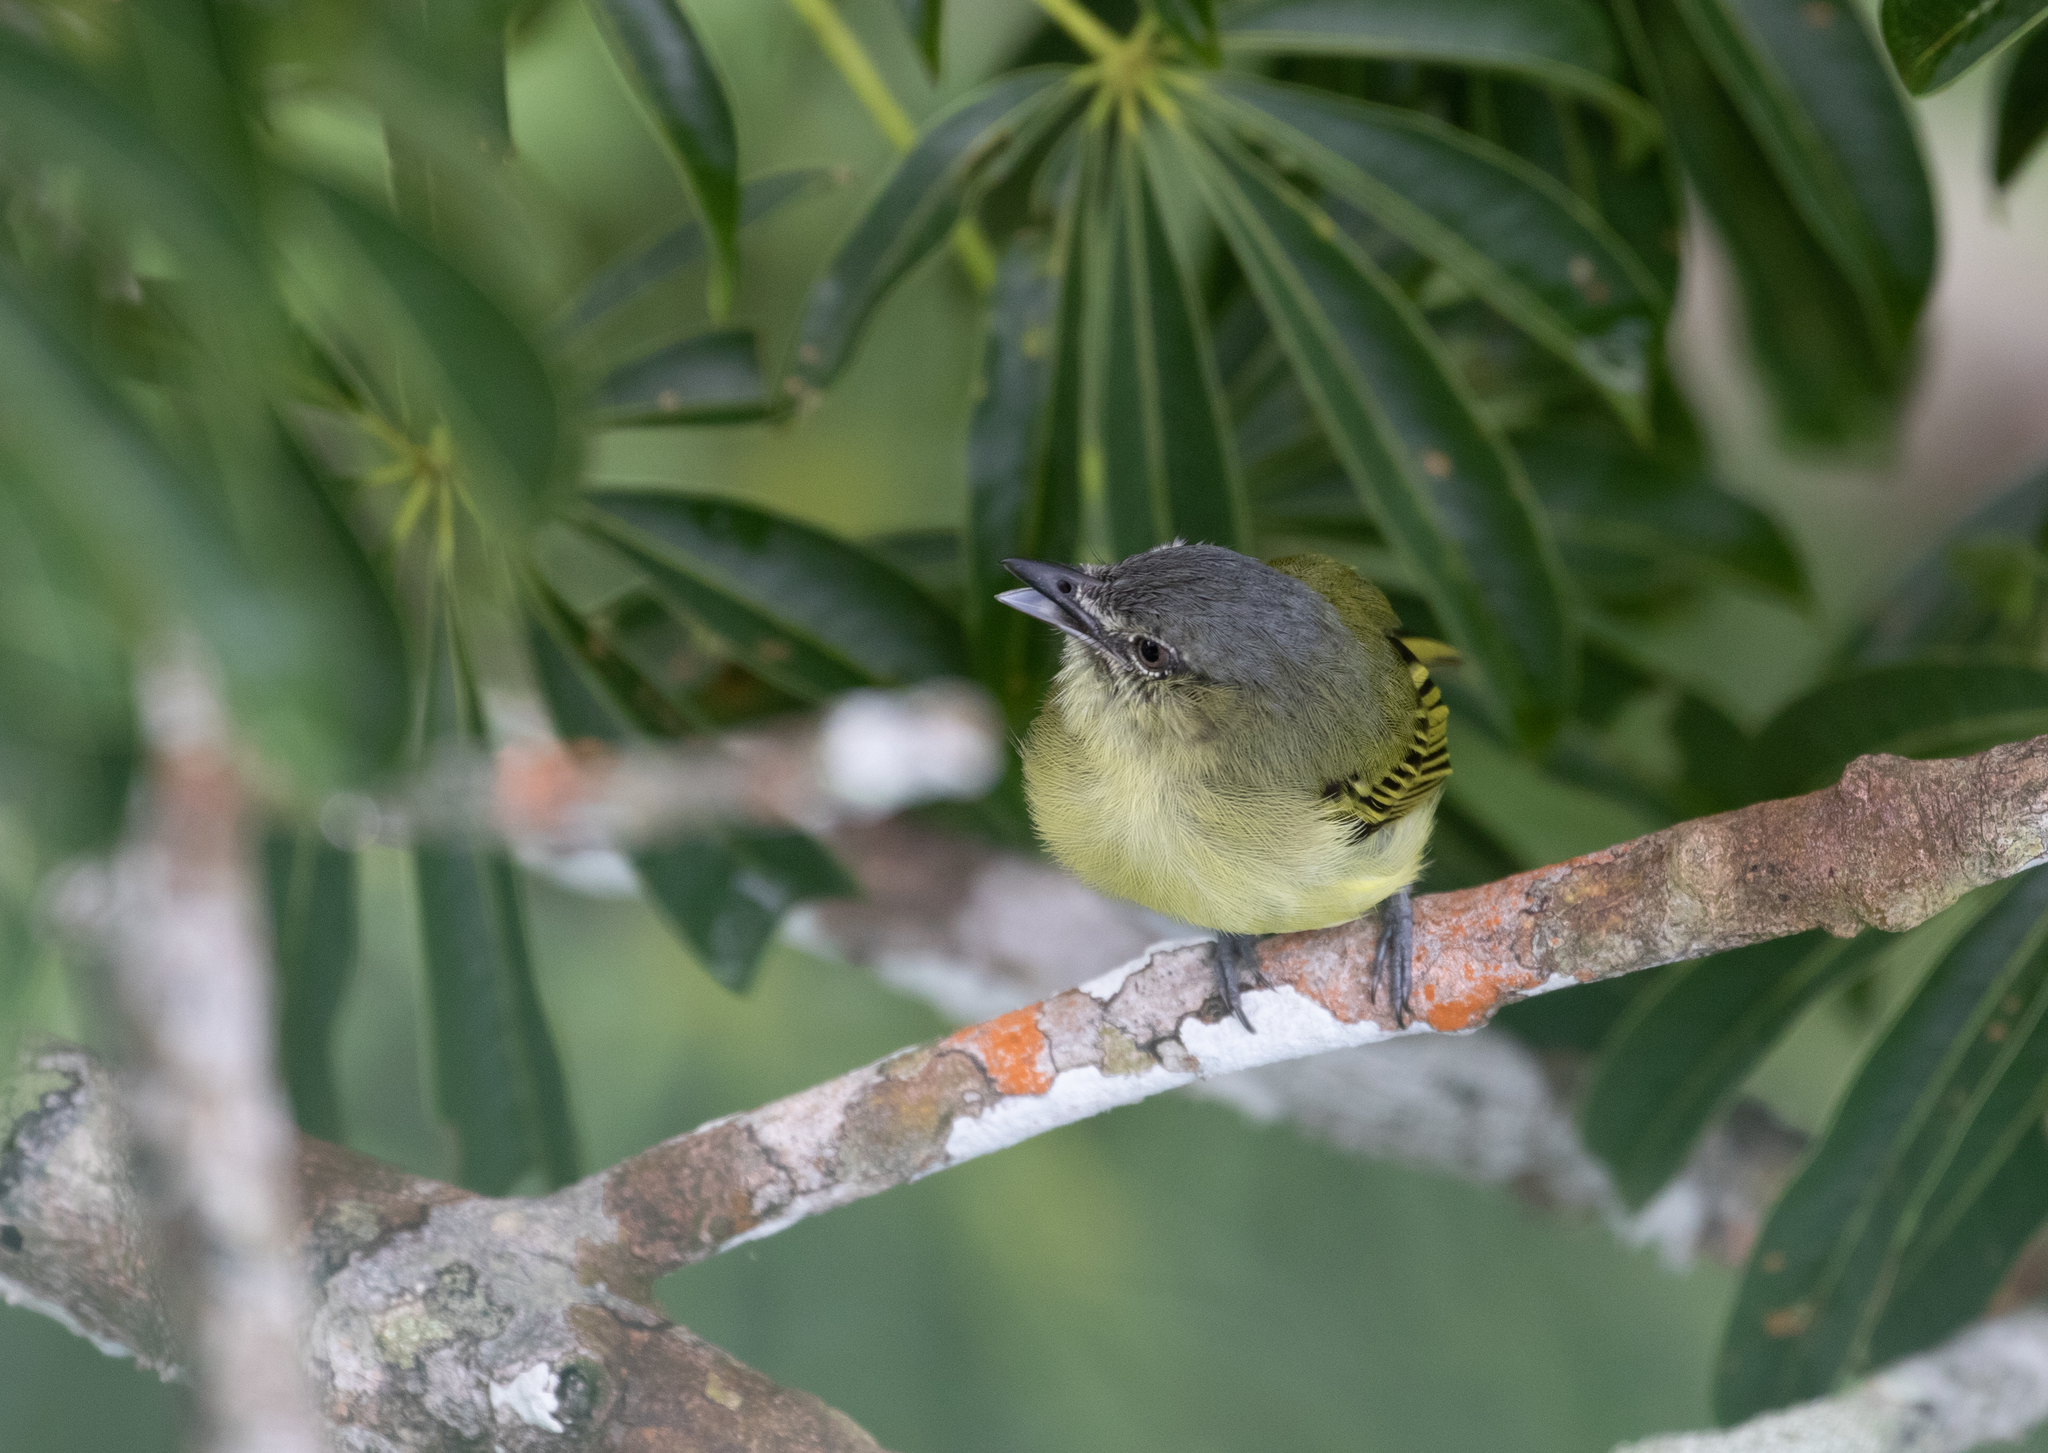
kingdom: Animalia
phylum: Chordata
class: Aves
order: Passeriformes
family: Tyrannidae
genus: Tolmomyias
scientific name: Tolmomyias poliocephalus
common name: Grey-crowned flatbill
